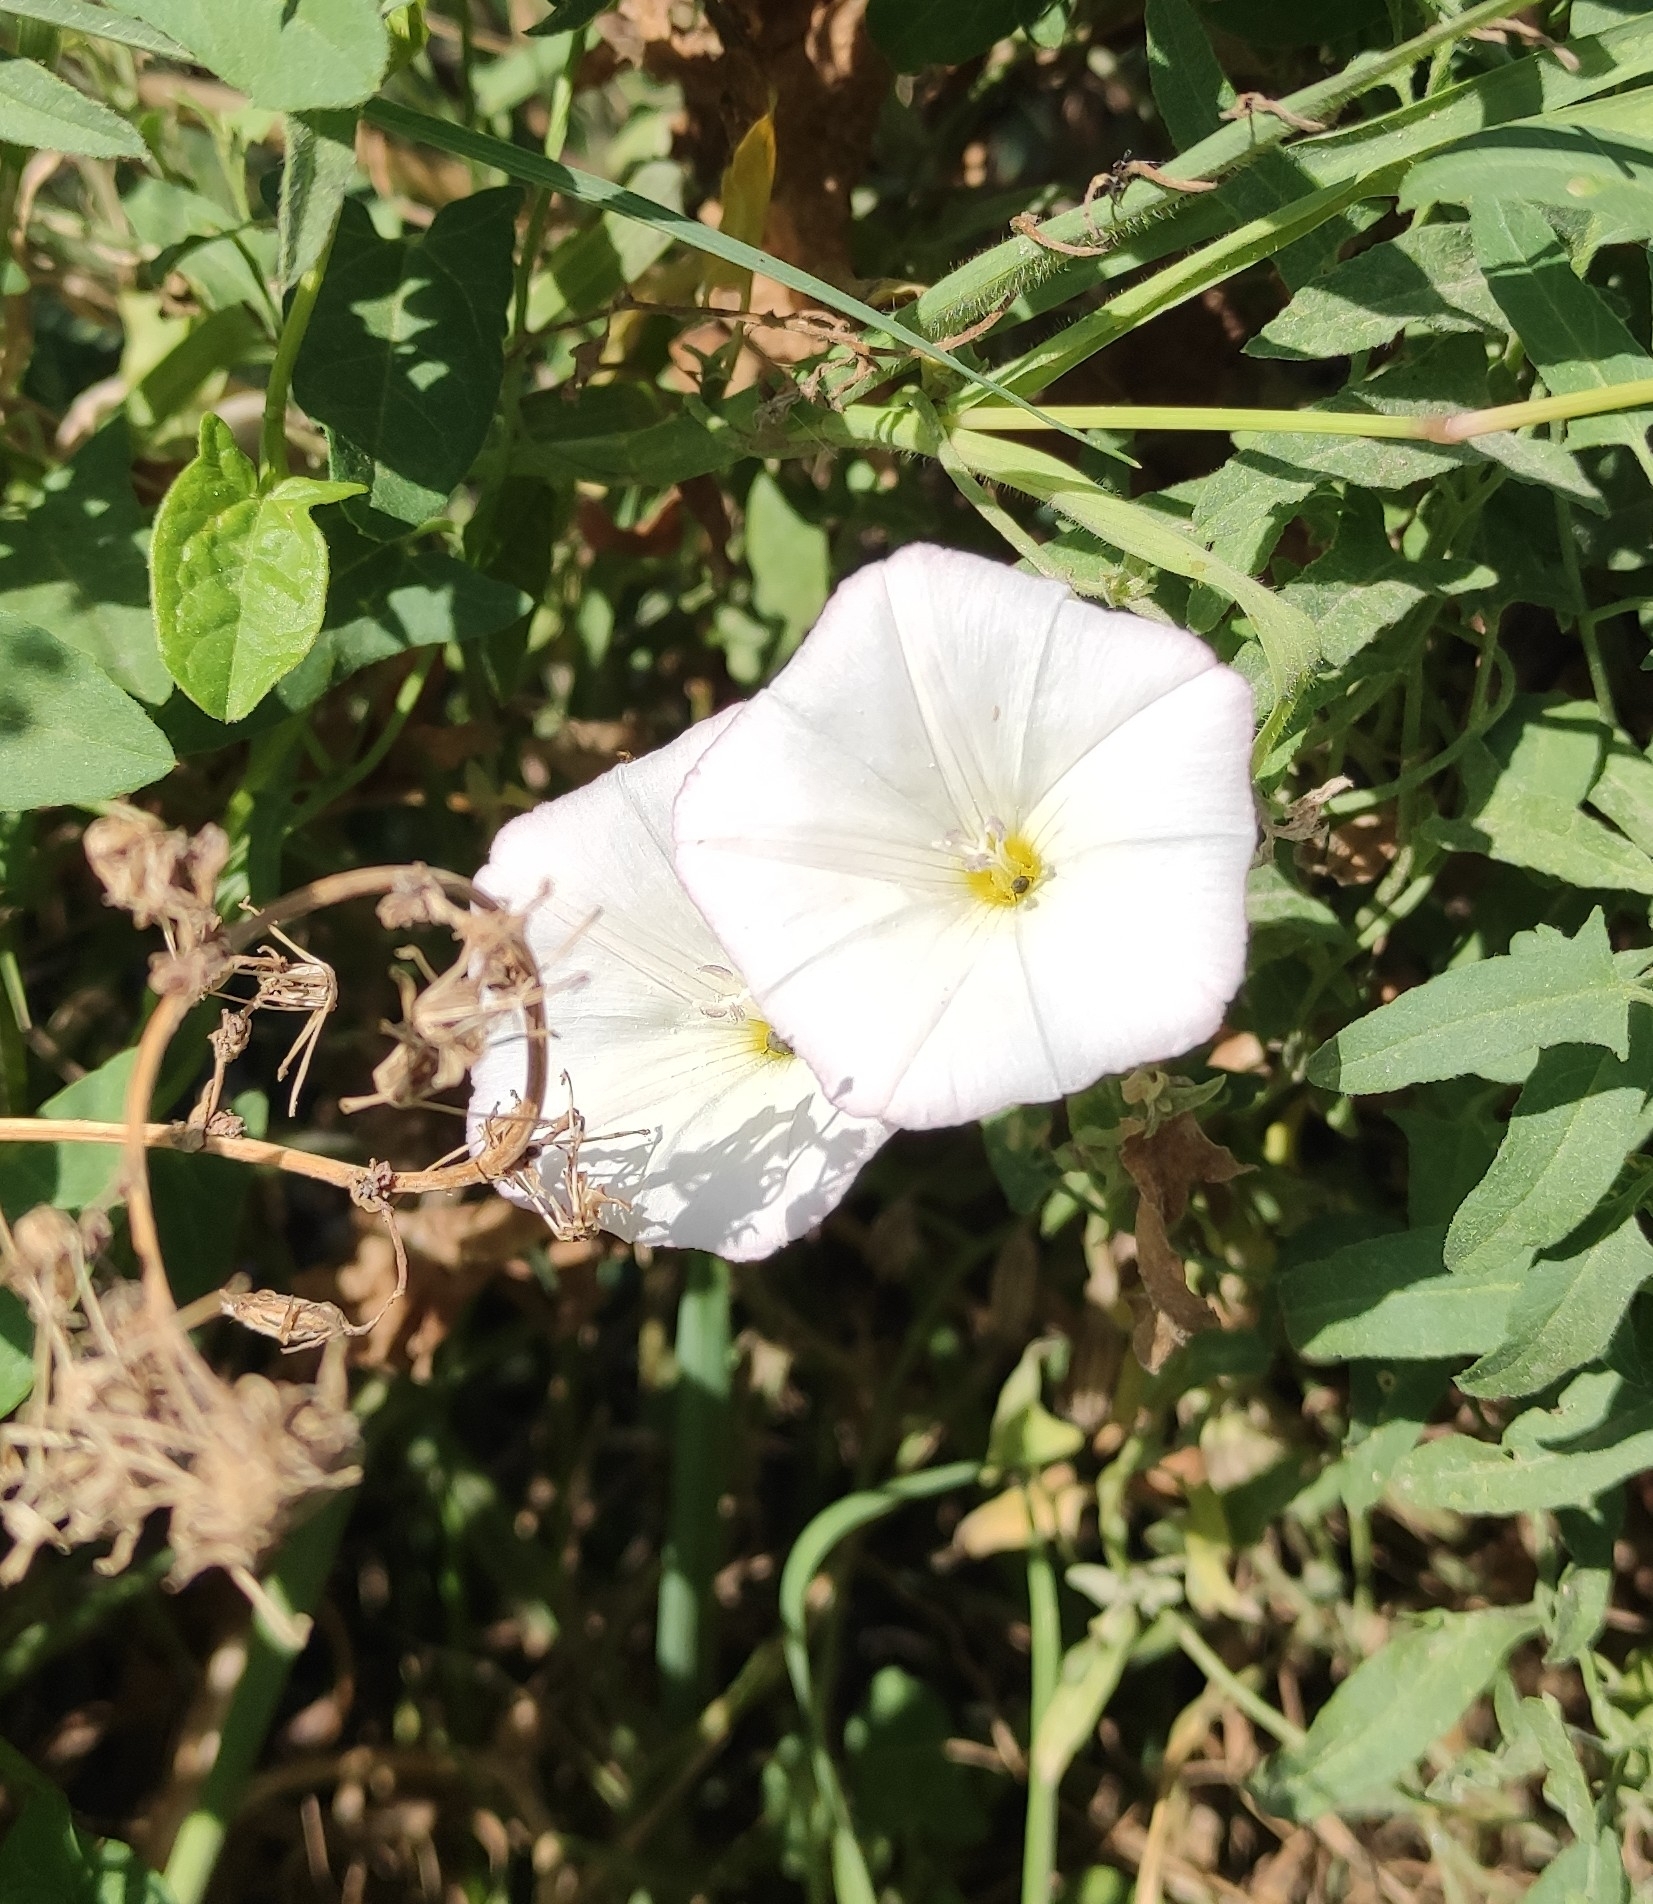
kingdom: Plantae
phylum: Tracheophyta
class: Magnoliopsida
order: Solanales
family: Convolvulaceae
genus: Convolvulus
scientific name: Convolvulus arvensis
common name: Field bindweed
